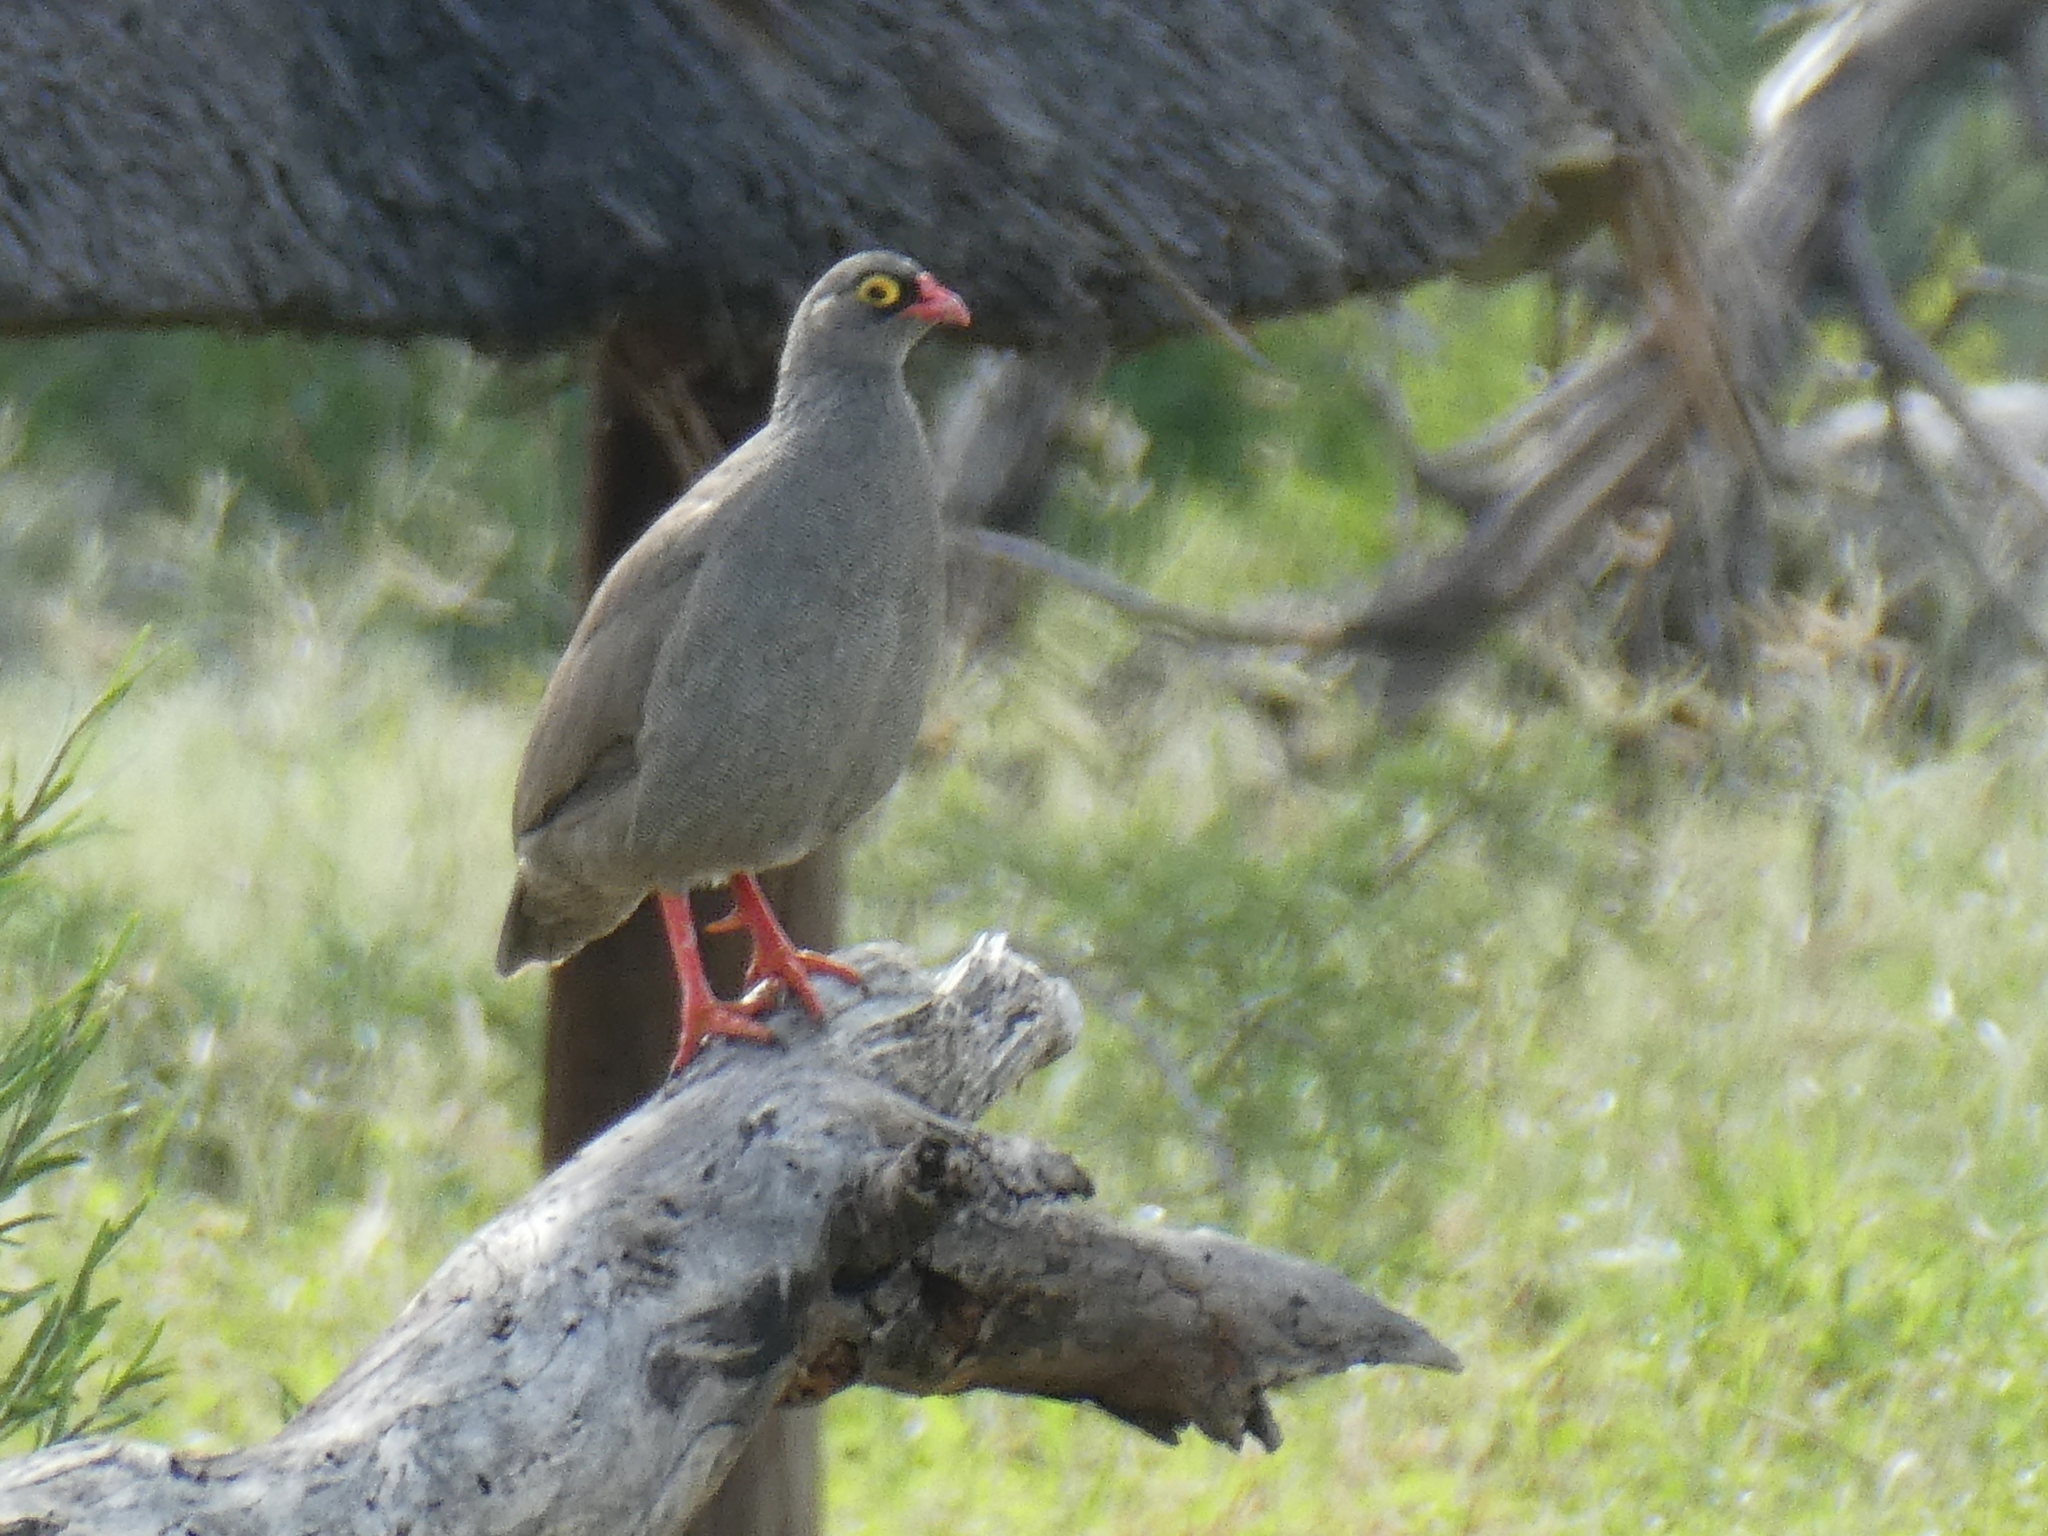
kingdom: Animalia
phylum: Chordata
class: Aves
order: Galliformes
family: Phasianidae
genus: Pternistis
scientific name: Pternistis adspersus
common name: Red-billed spurfowl
